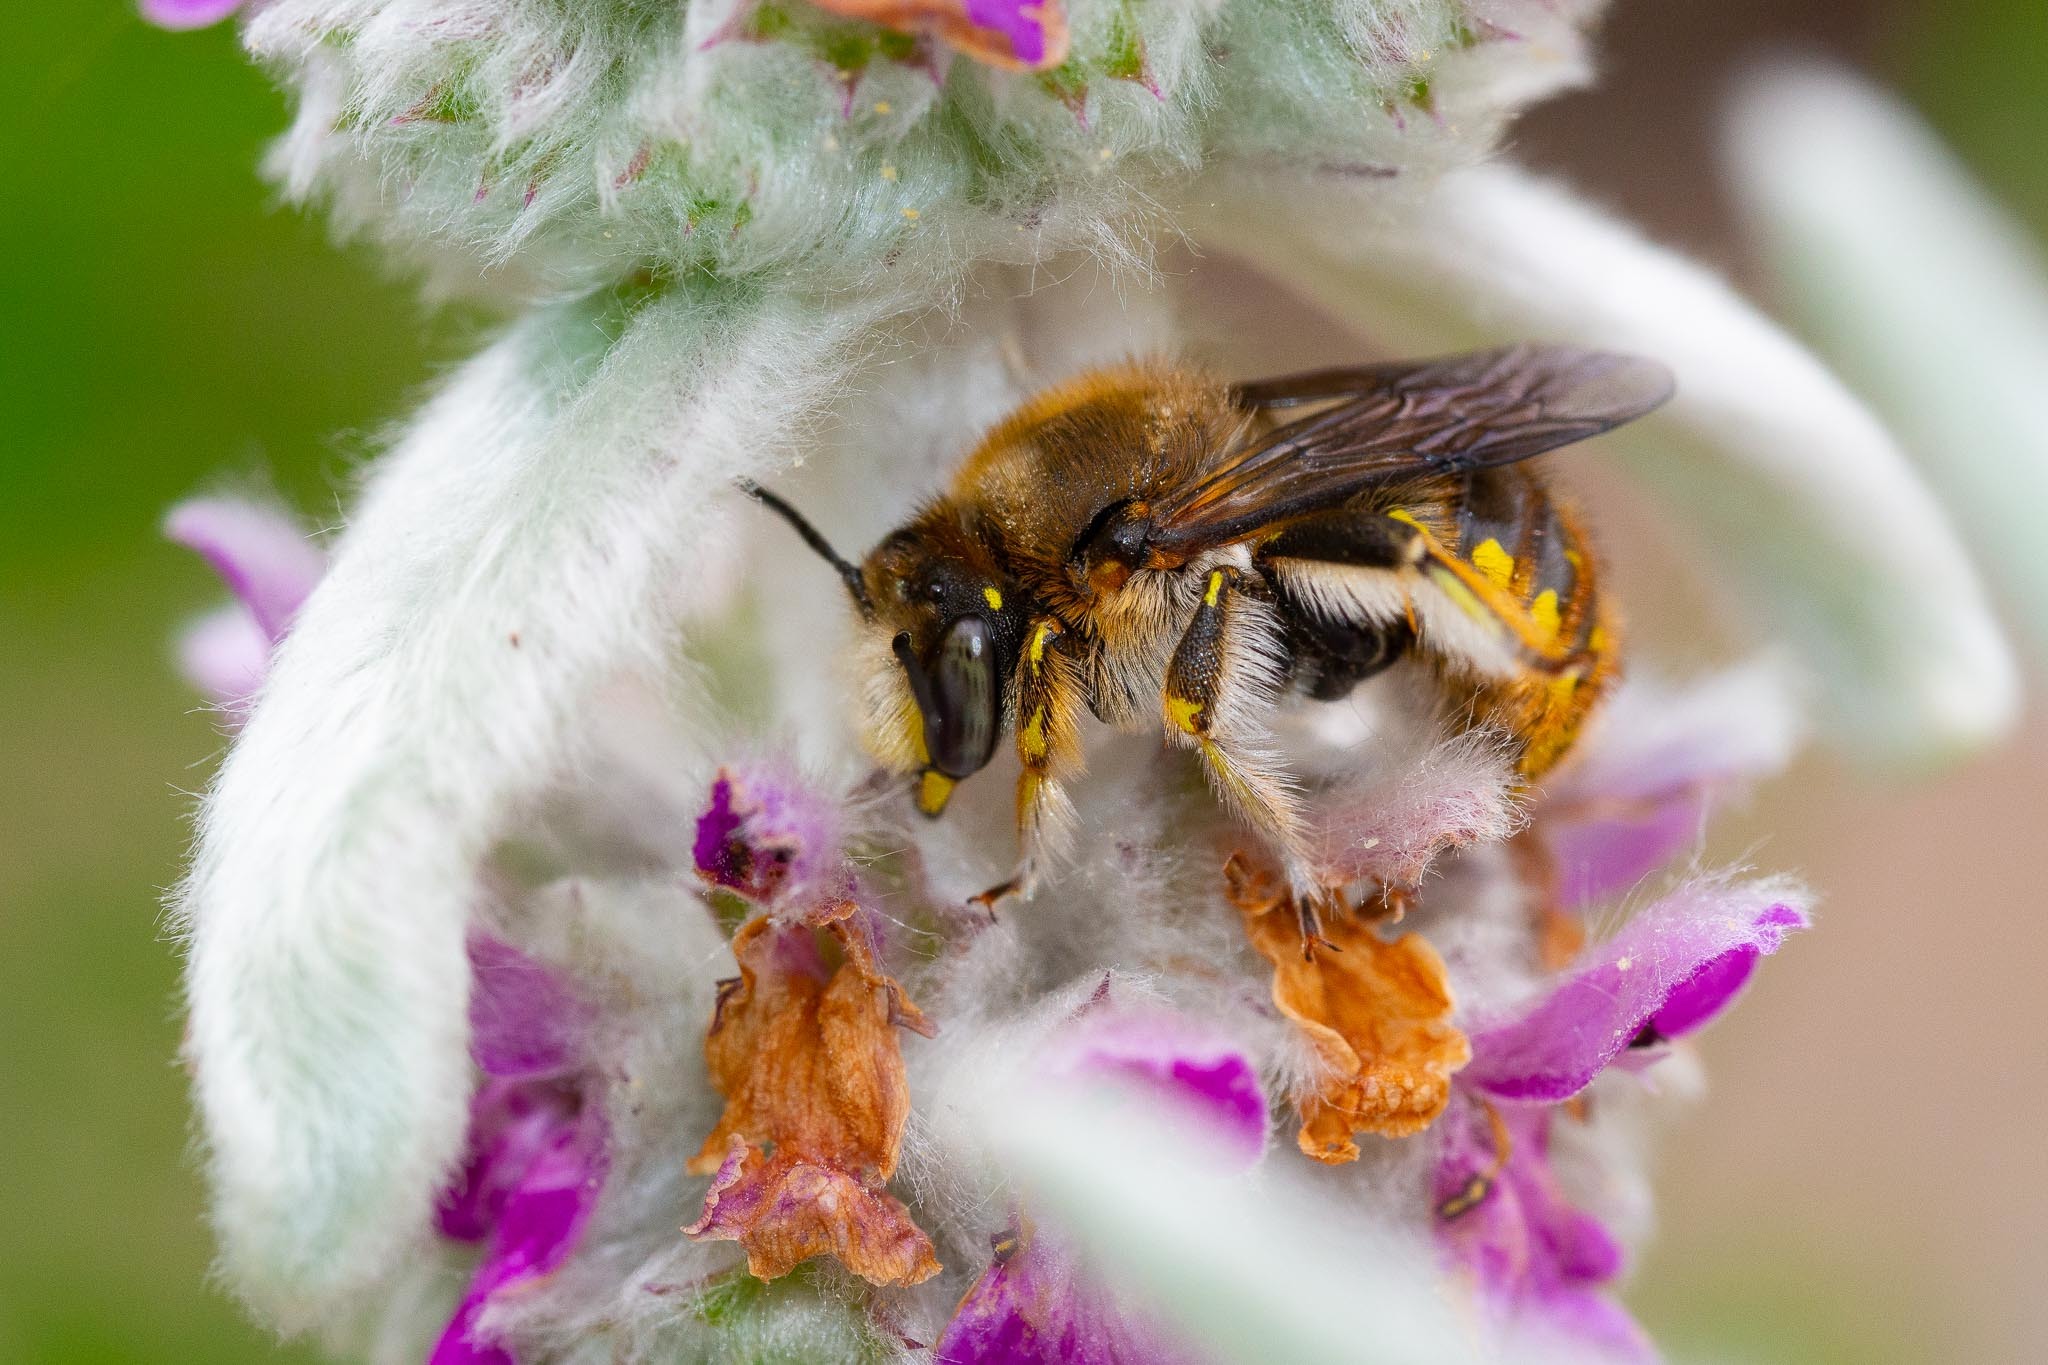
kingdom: Animalia
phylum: Arthropoda
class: Insecta
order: Hymenoptera
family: Megachilidae
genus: Anthidium
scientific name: Anthidium manicatum
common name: Wool carder bee
